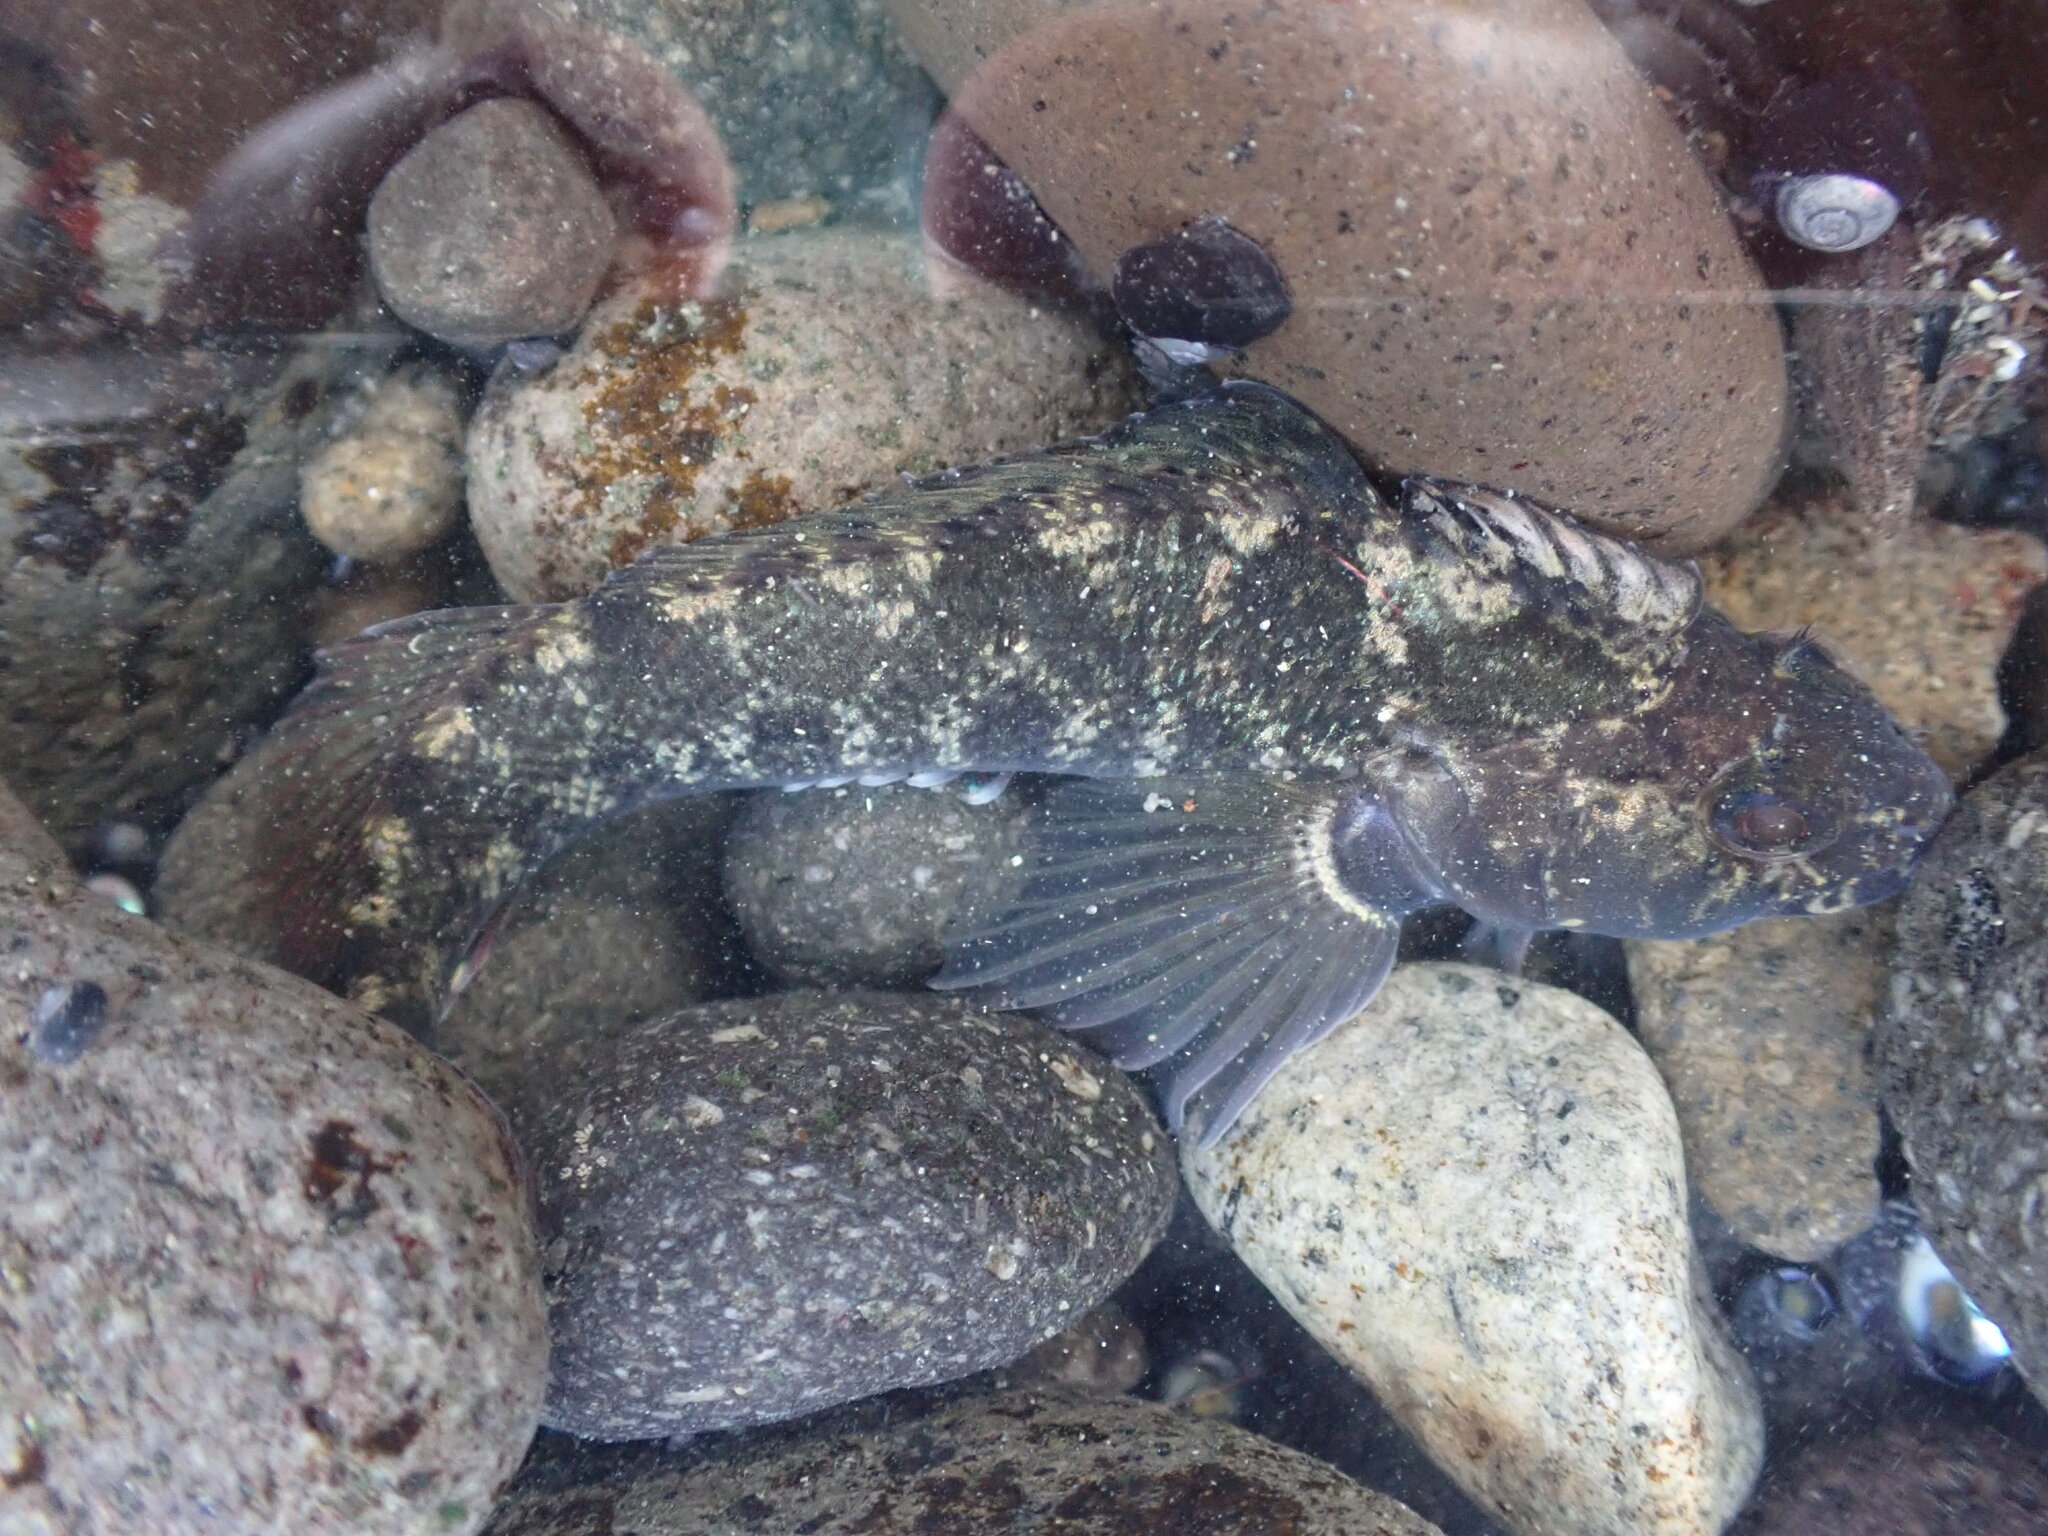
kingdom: Animalia
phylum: Chordata
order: Perciformes
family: Tripterygiidae
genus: Forsterygion
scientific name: Forsterygion gymnotum
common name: Multifid-tentacled robust triplefin
